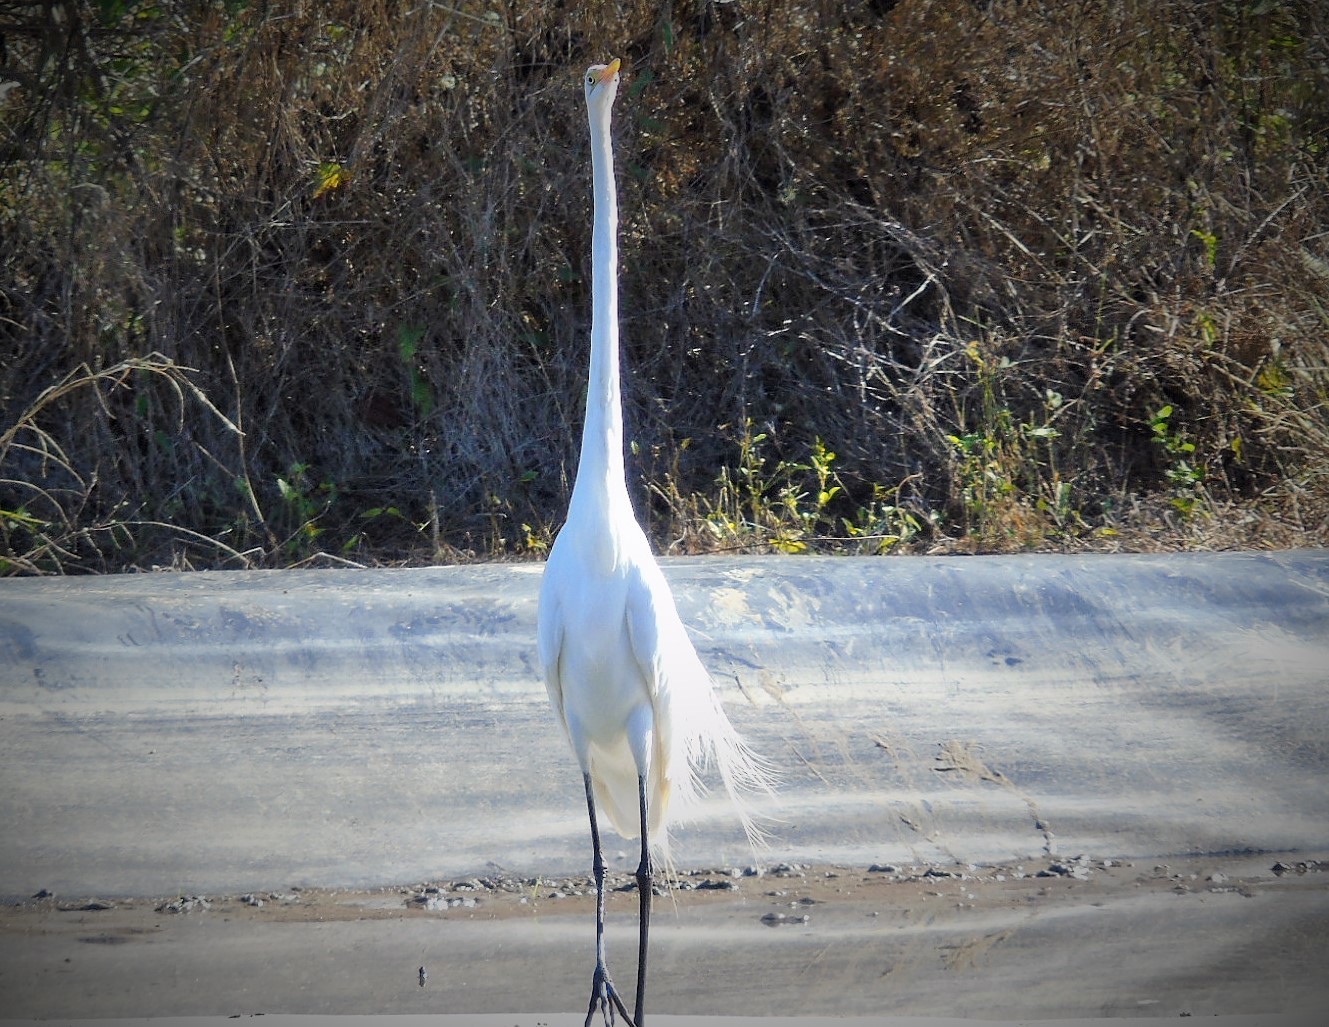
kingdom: Animalia
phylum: Chordata
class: Aves
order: Pelecaniformes
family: Ardeidae
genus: Ardea
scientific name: Ardea alba
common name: Great egret
